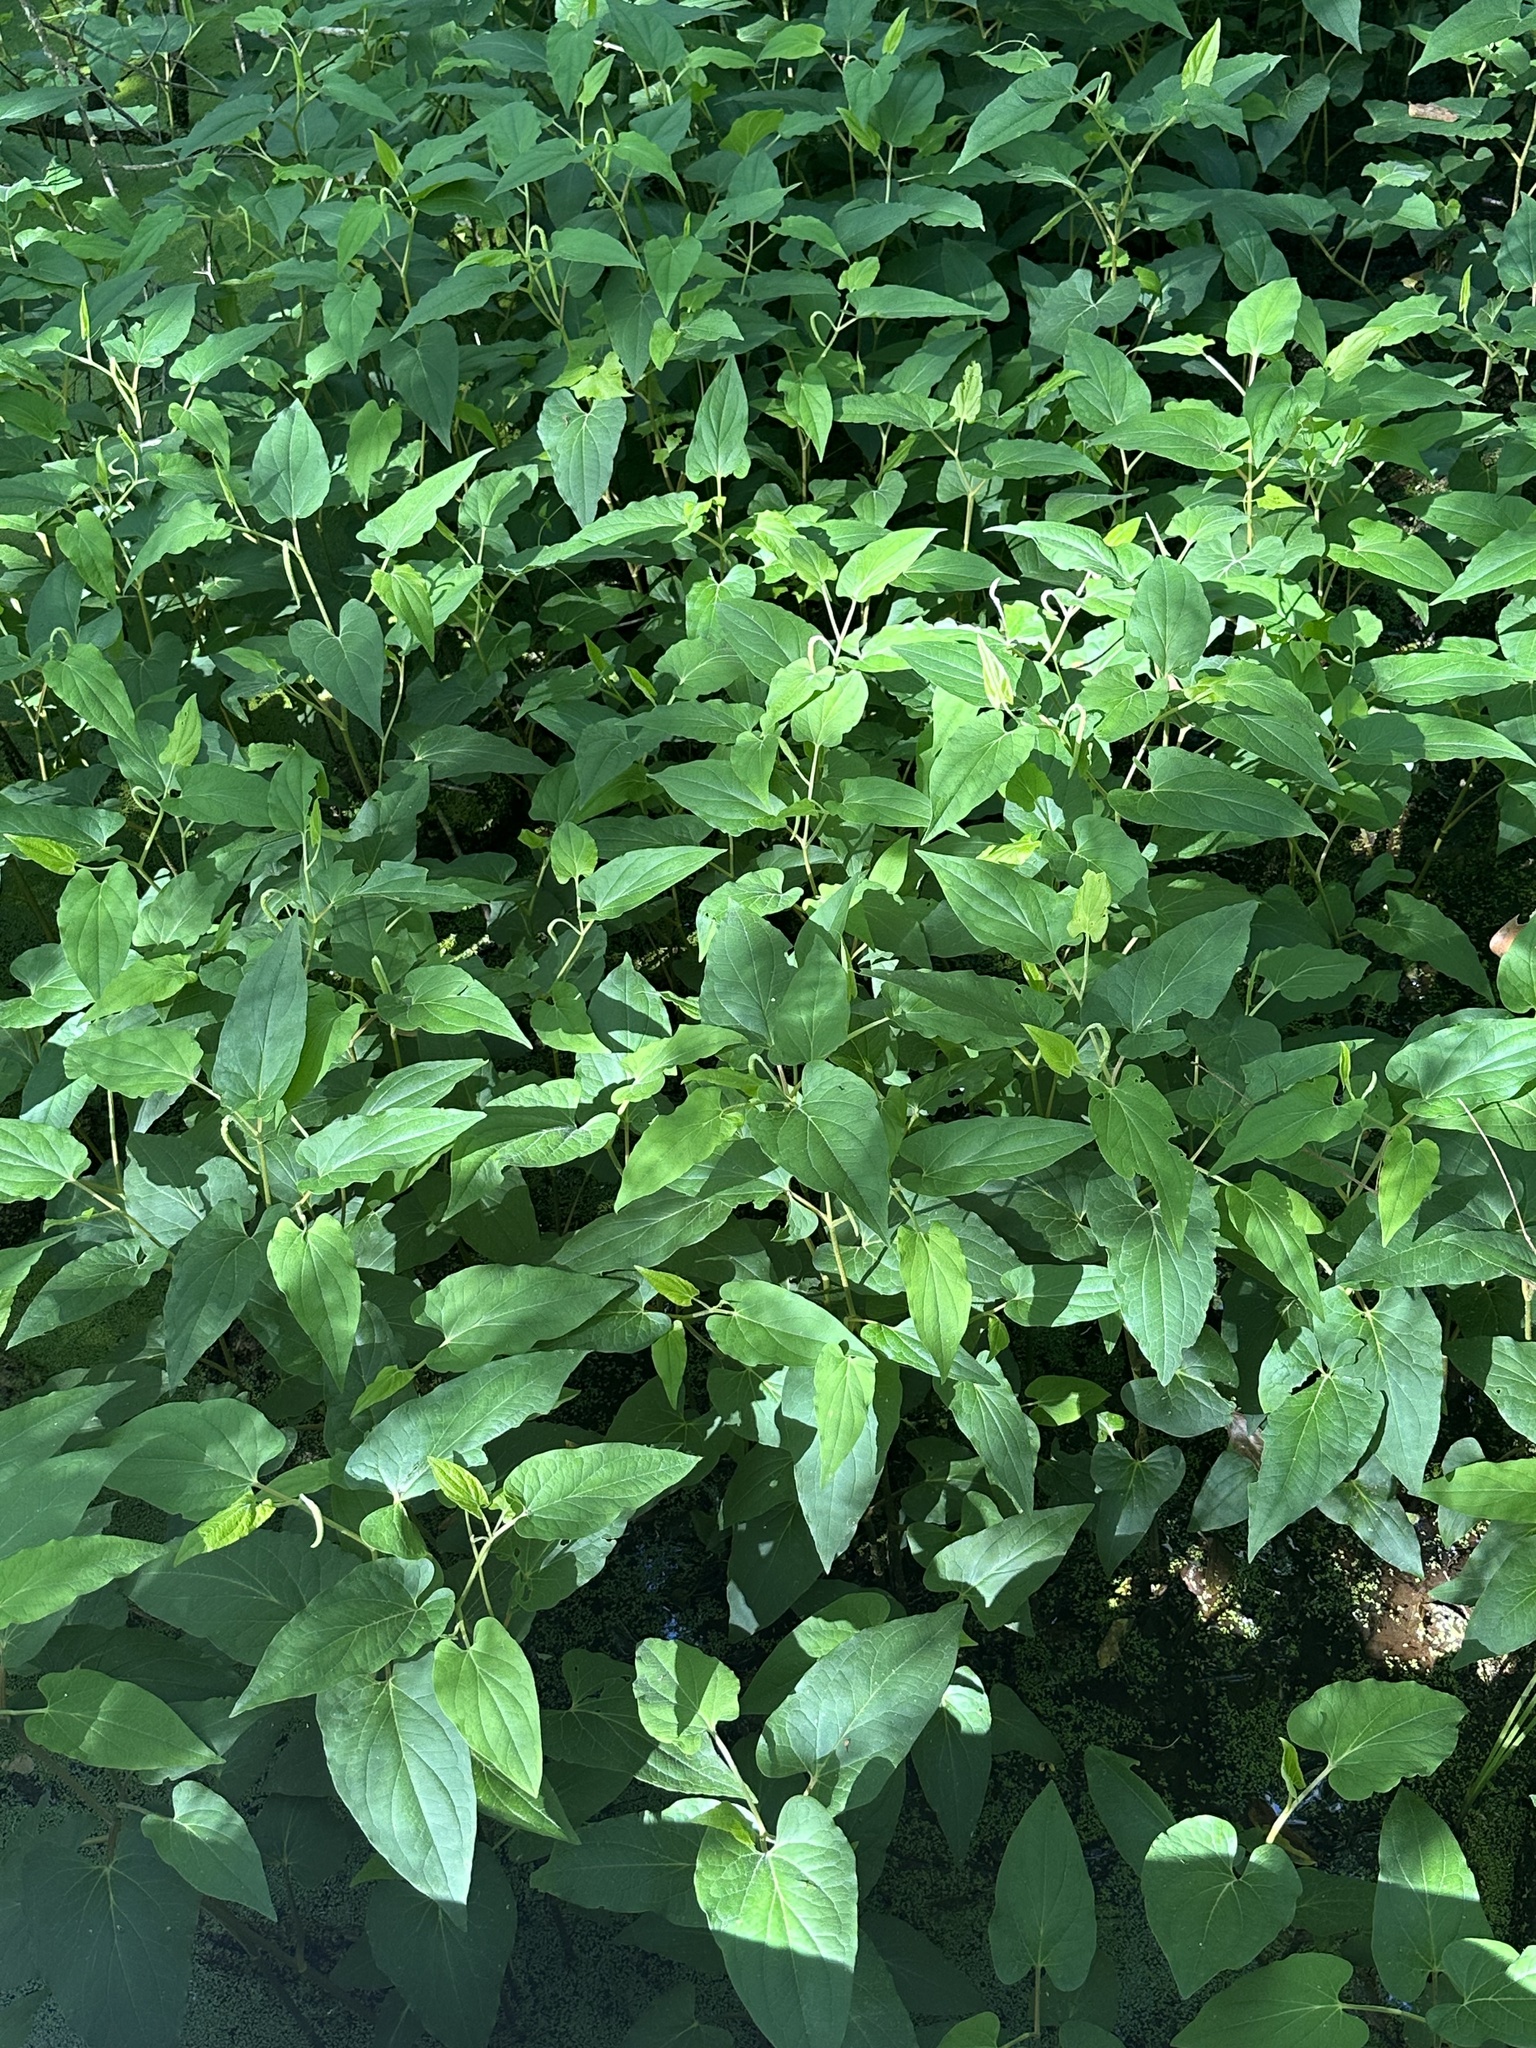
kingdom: Plantae
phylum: Tracheophyta
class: Magnoliopsida
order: Piperales
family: Saururaceae
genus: Saururus
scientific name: Saururus cernuus
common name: Lizard's-tail
